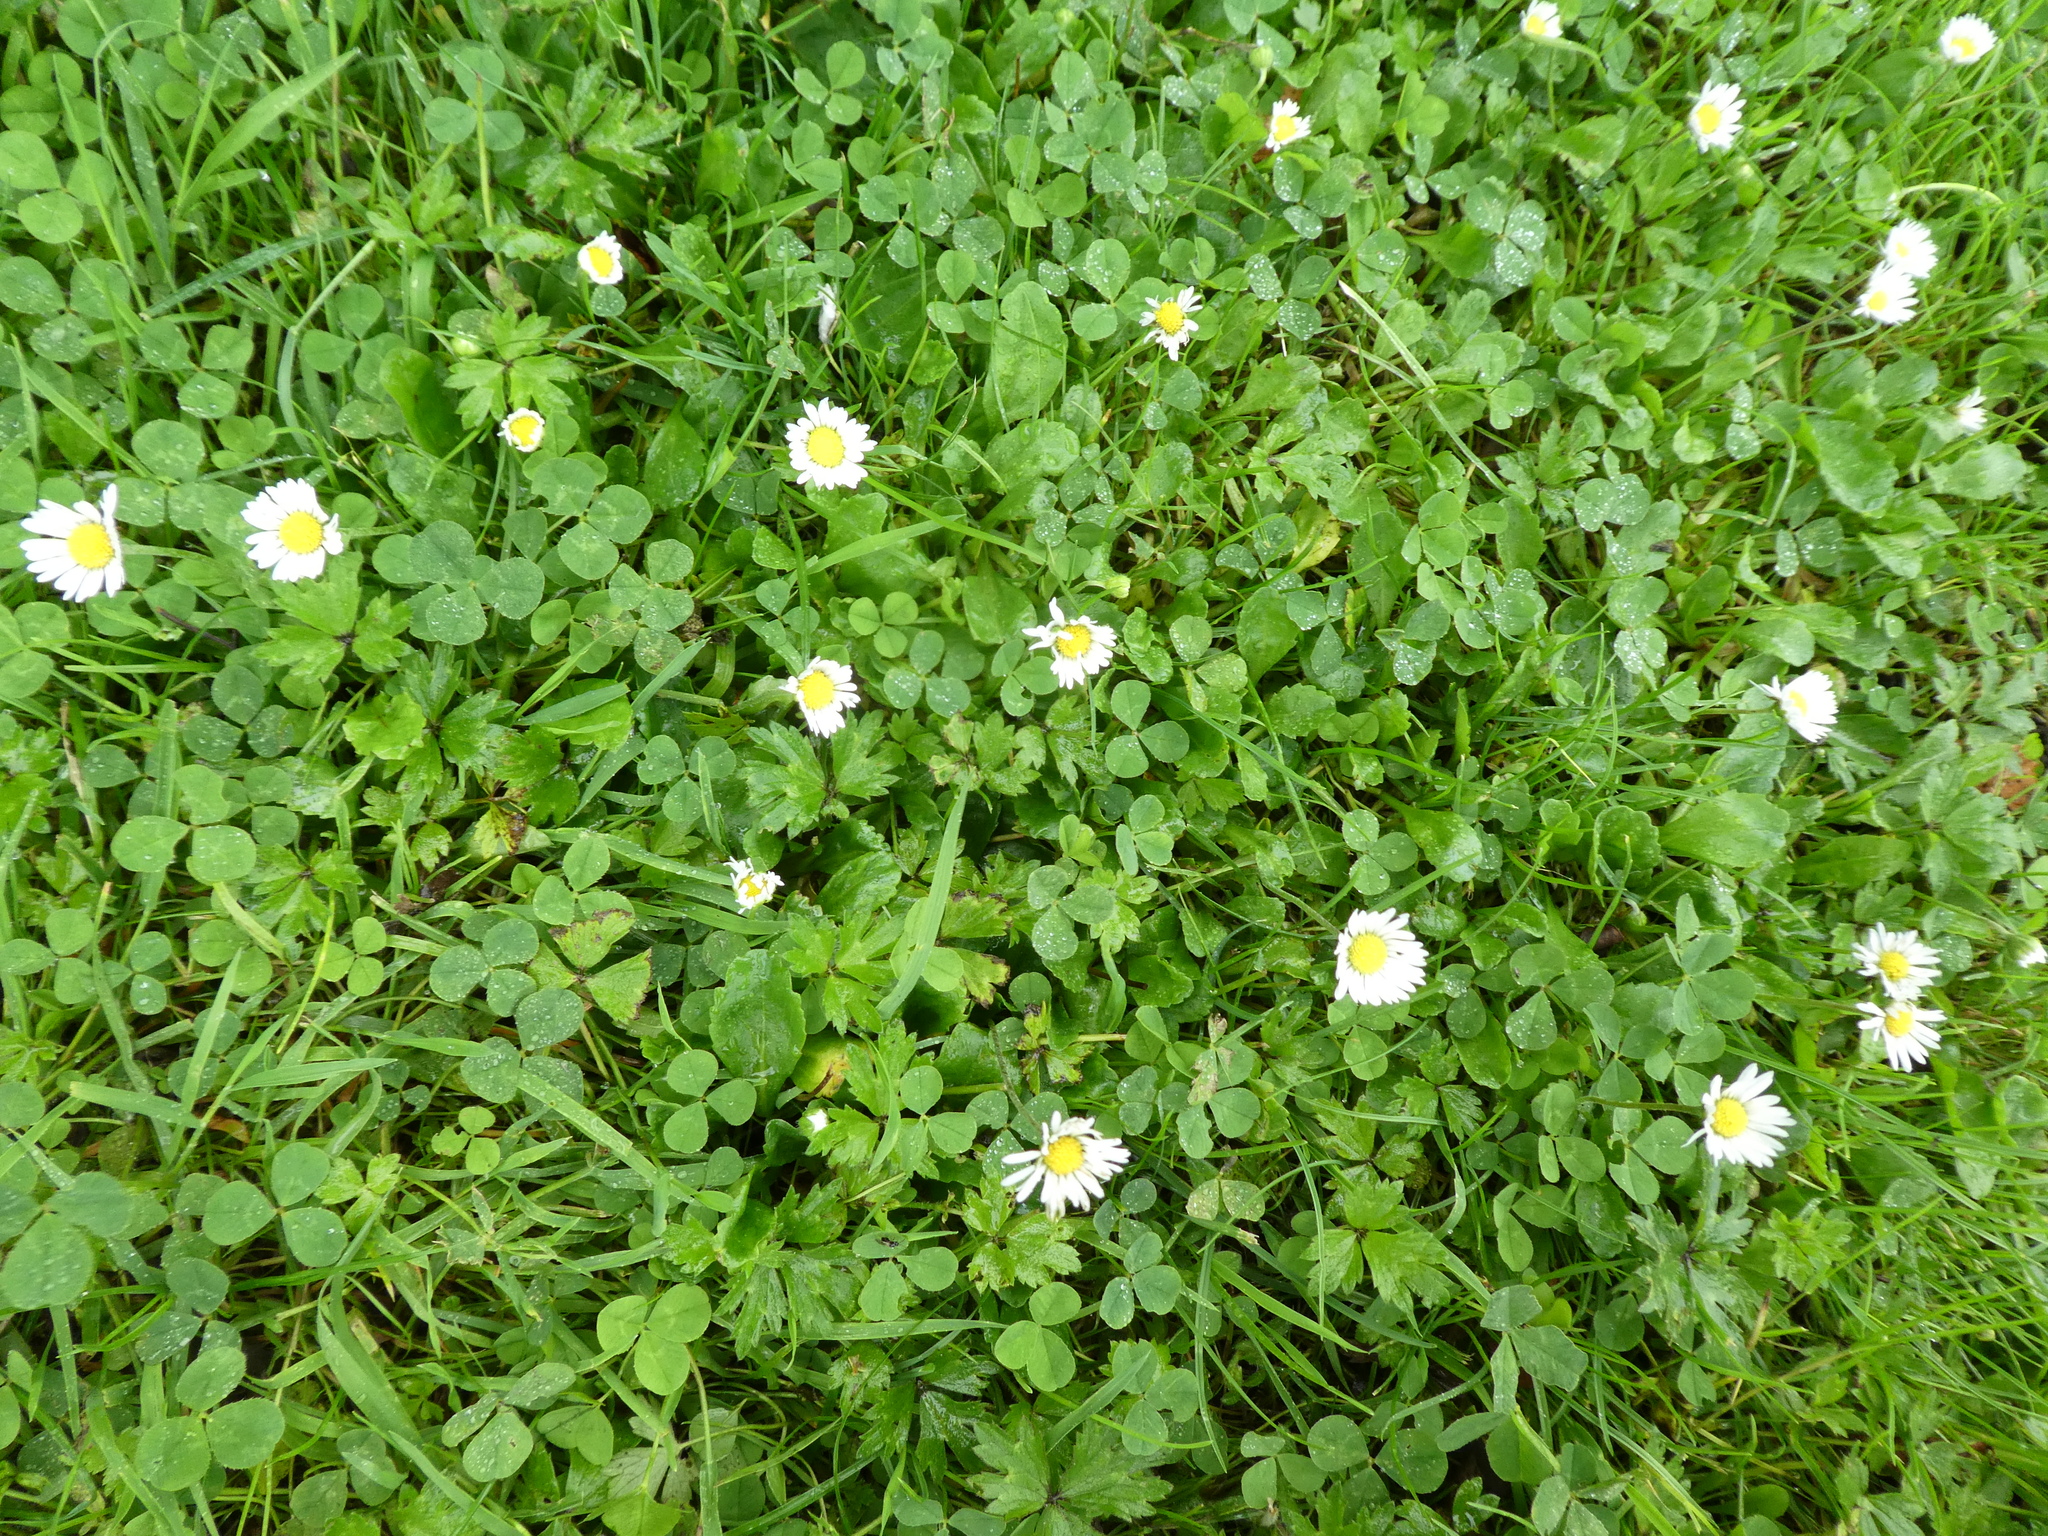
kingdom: Plantae
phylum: Tracheophyta
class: Magnoliopsida
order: Asterales
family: Asteraceae
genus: Bellis
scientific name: Bellis perennis
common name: Lawndaisy
